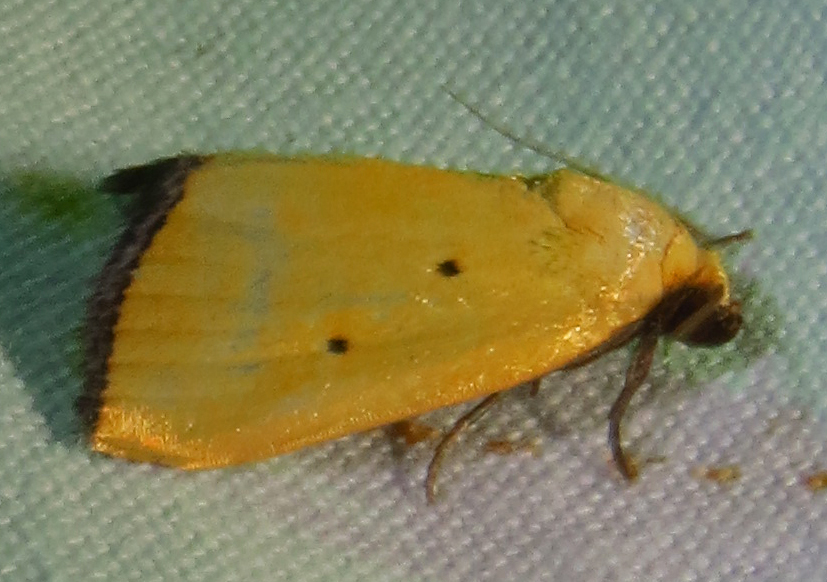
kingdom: Animalia
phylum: Arthropoda
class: Insecta
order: Lepidoptera
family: Noctuidae
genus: Marimatha
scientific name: Marimatha nigrofimbria
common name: Black-bordered lemon moth
